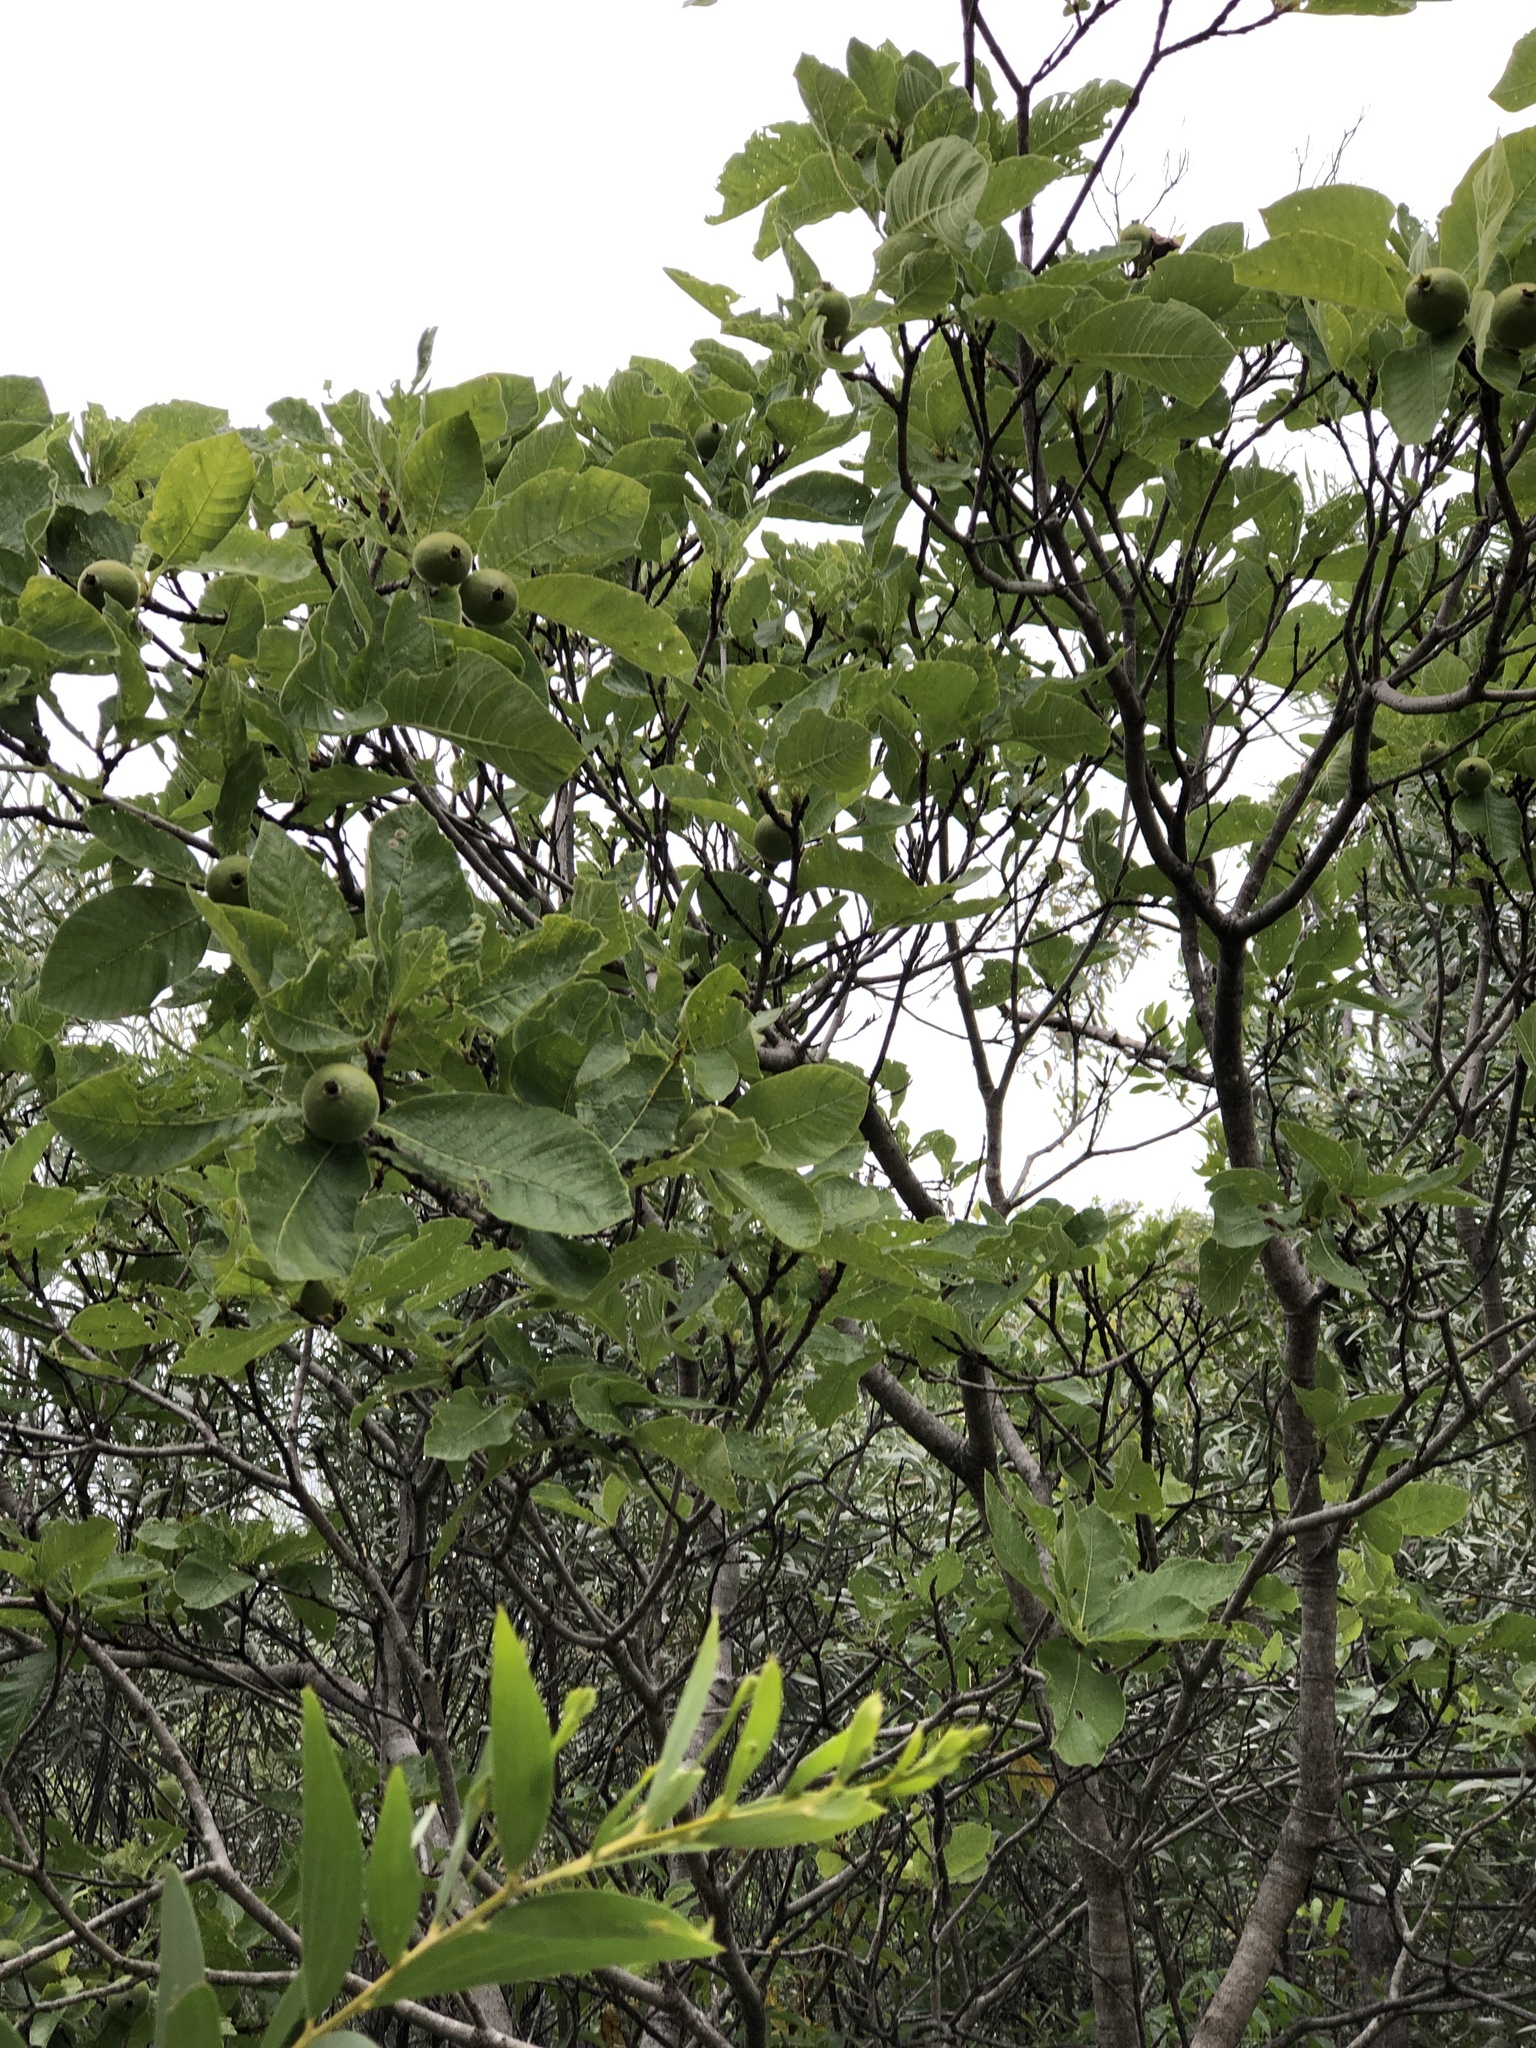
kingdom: Plantae
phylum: Tracheophyta
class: Magnoliopsida
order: Gentianales
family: Rubiaceae
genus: Larsenaikia
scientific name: Larsenaikia ochreata
